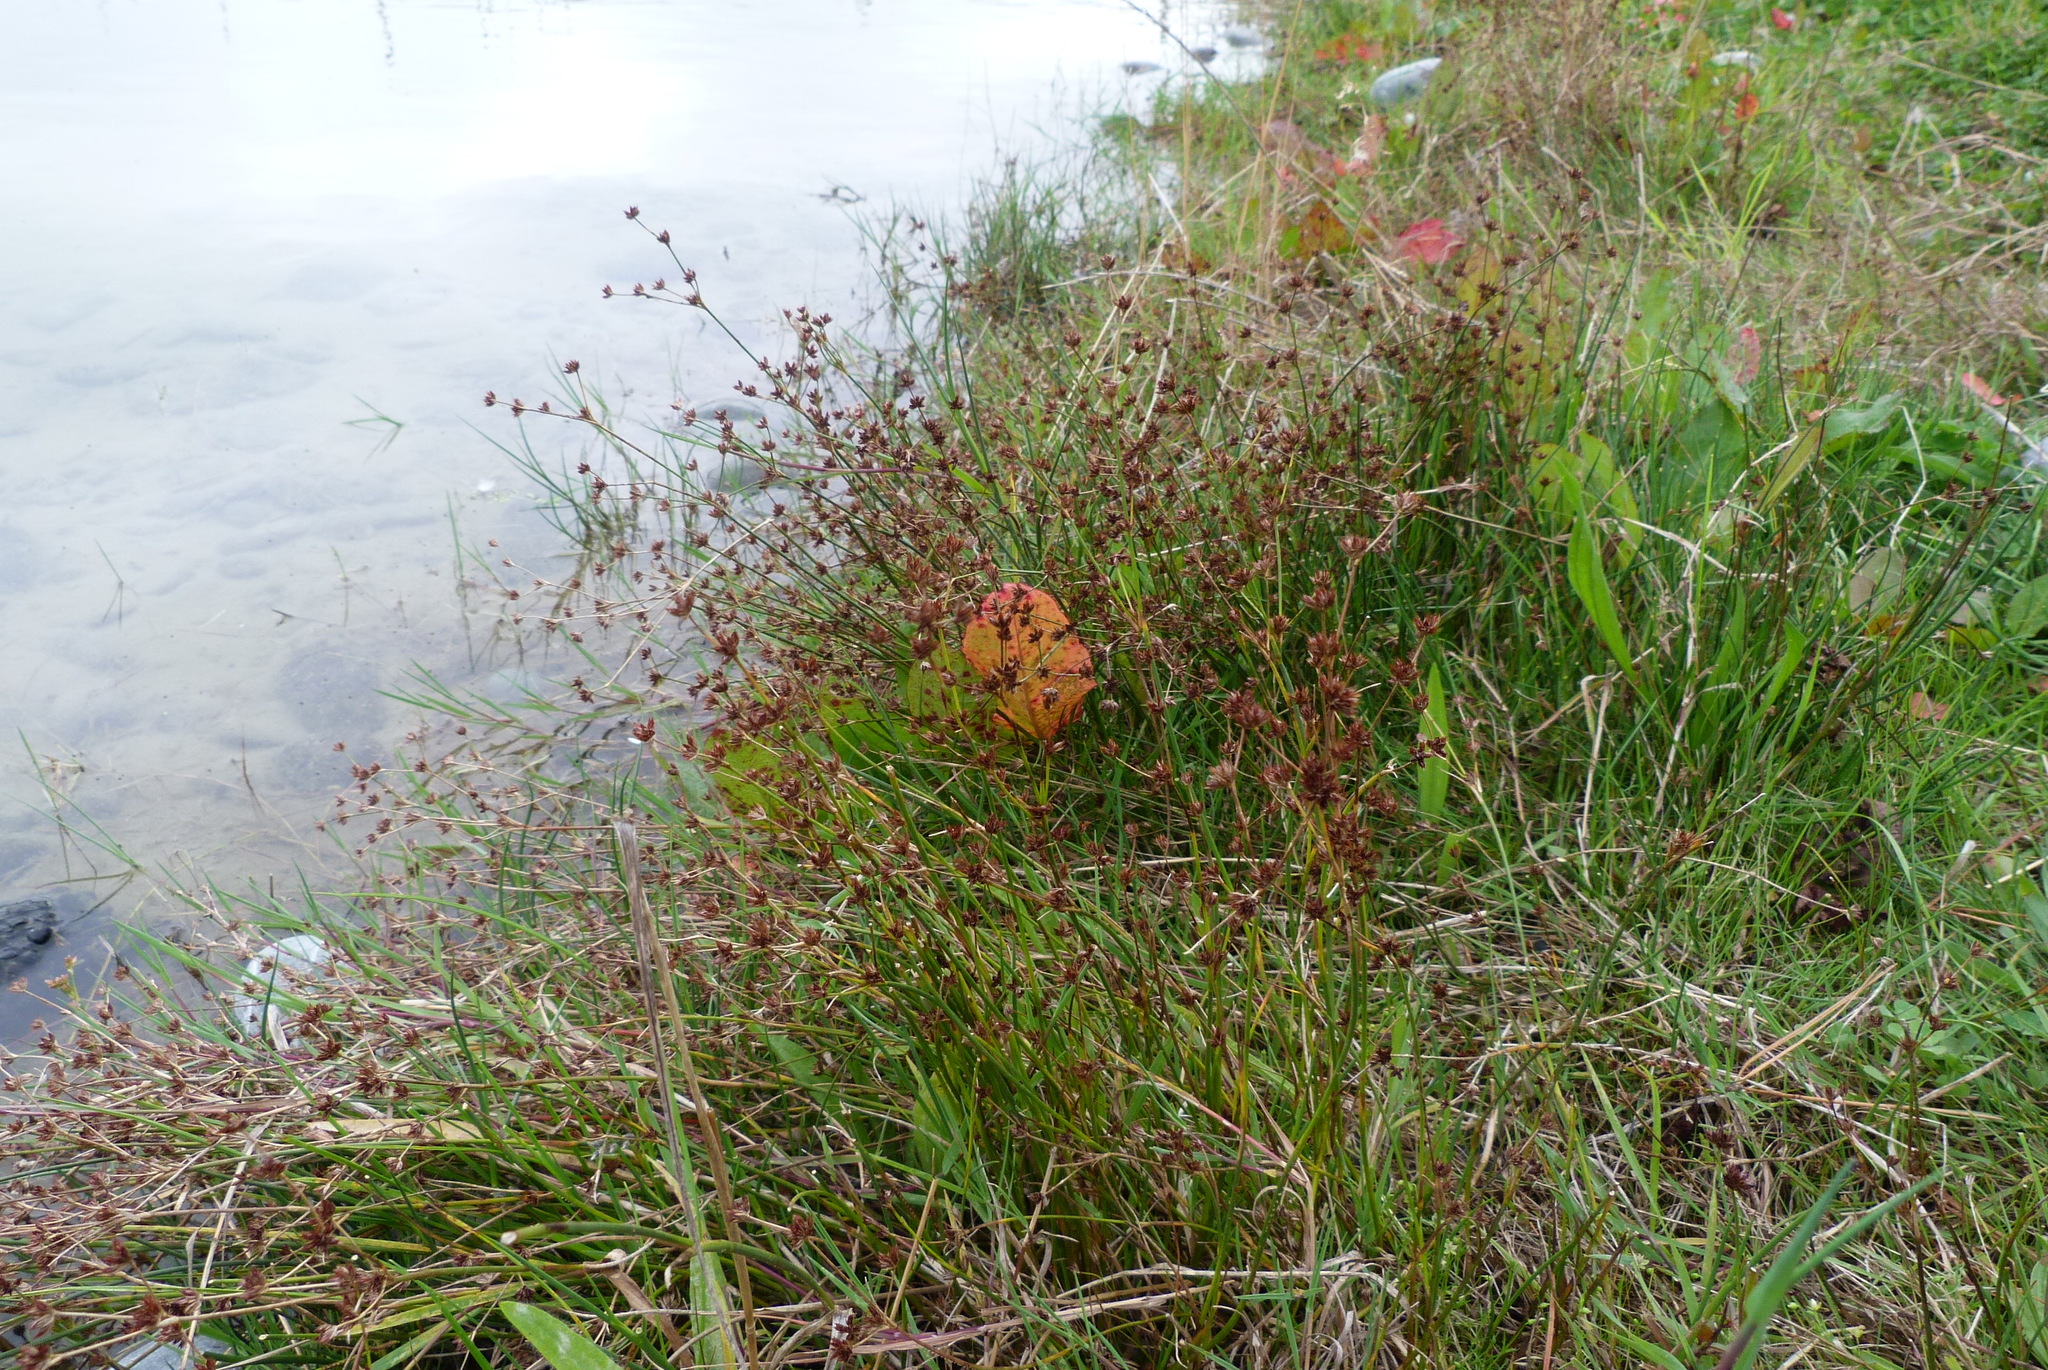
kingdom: Plantae
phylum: Tracheophyta
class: Liliopsida
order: Poales
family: Juncaceae
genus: Juncus
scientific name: Juncus articulatus
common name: Jointed rush
